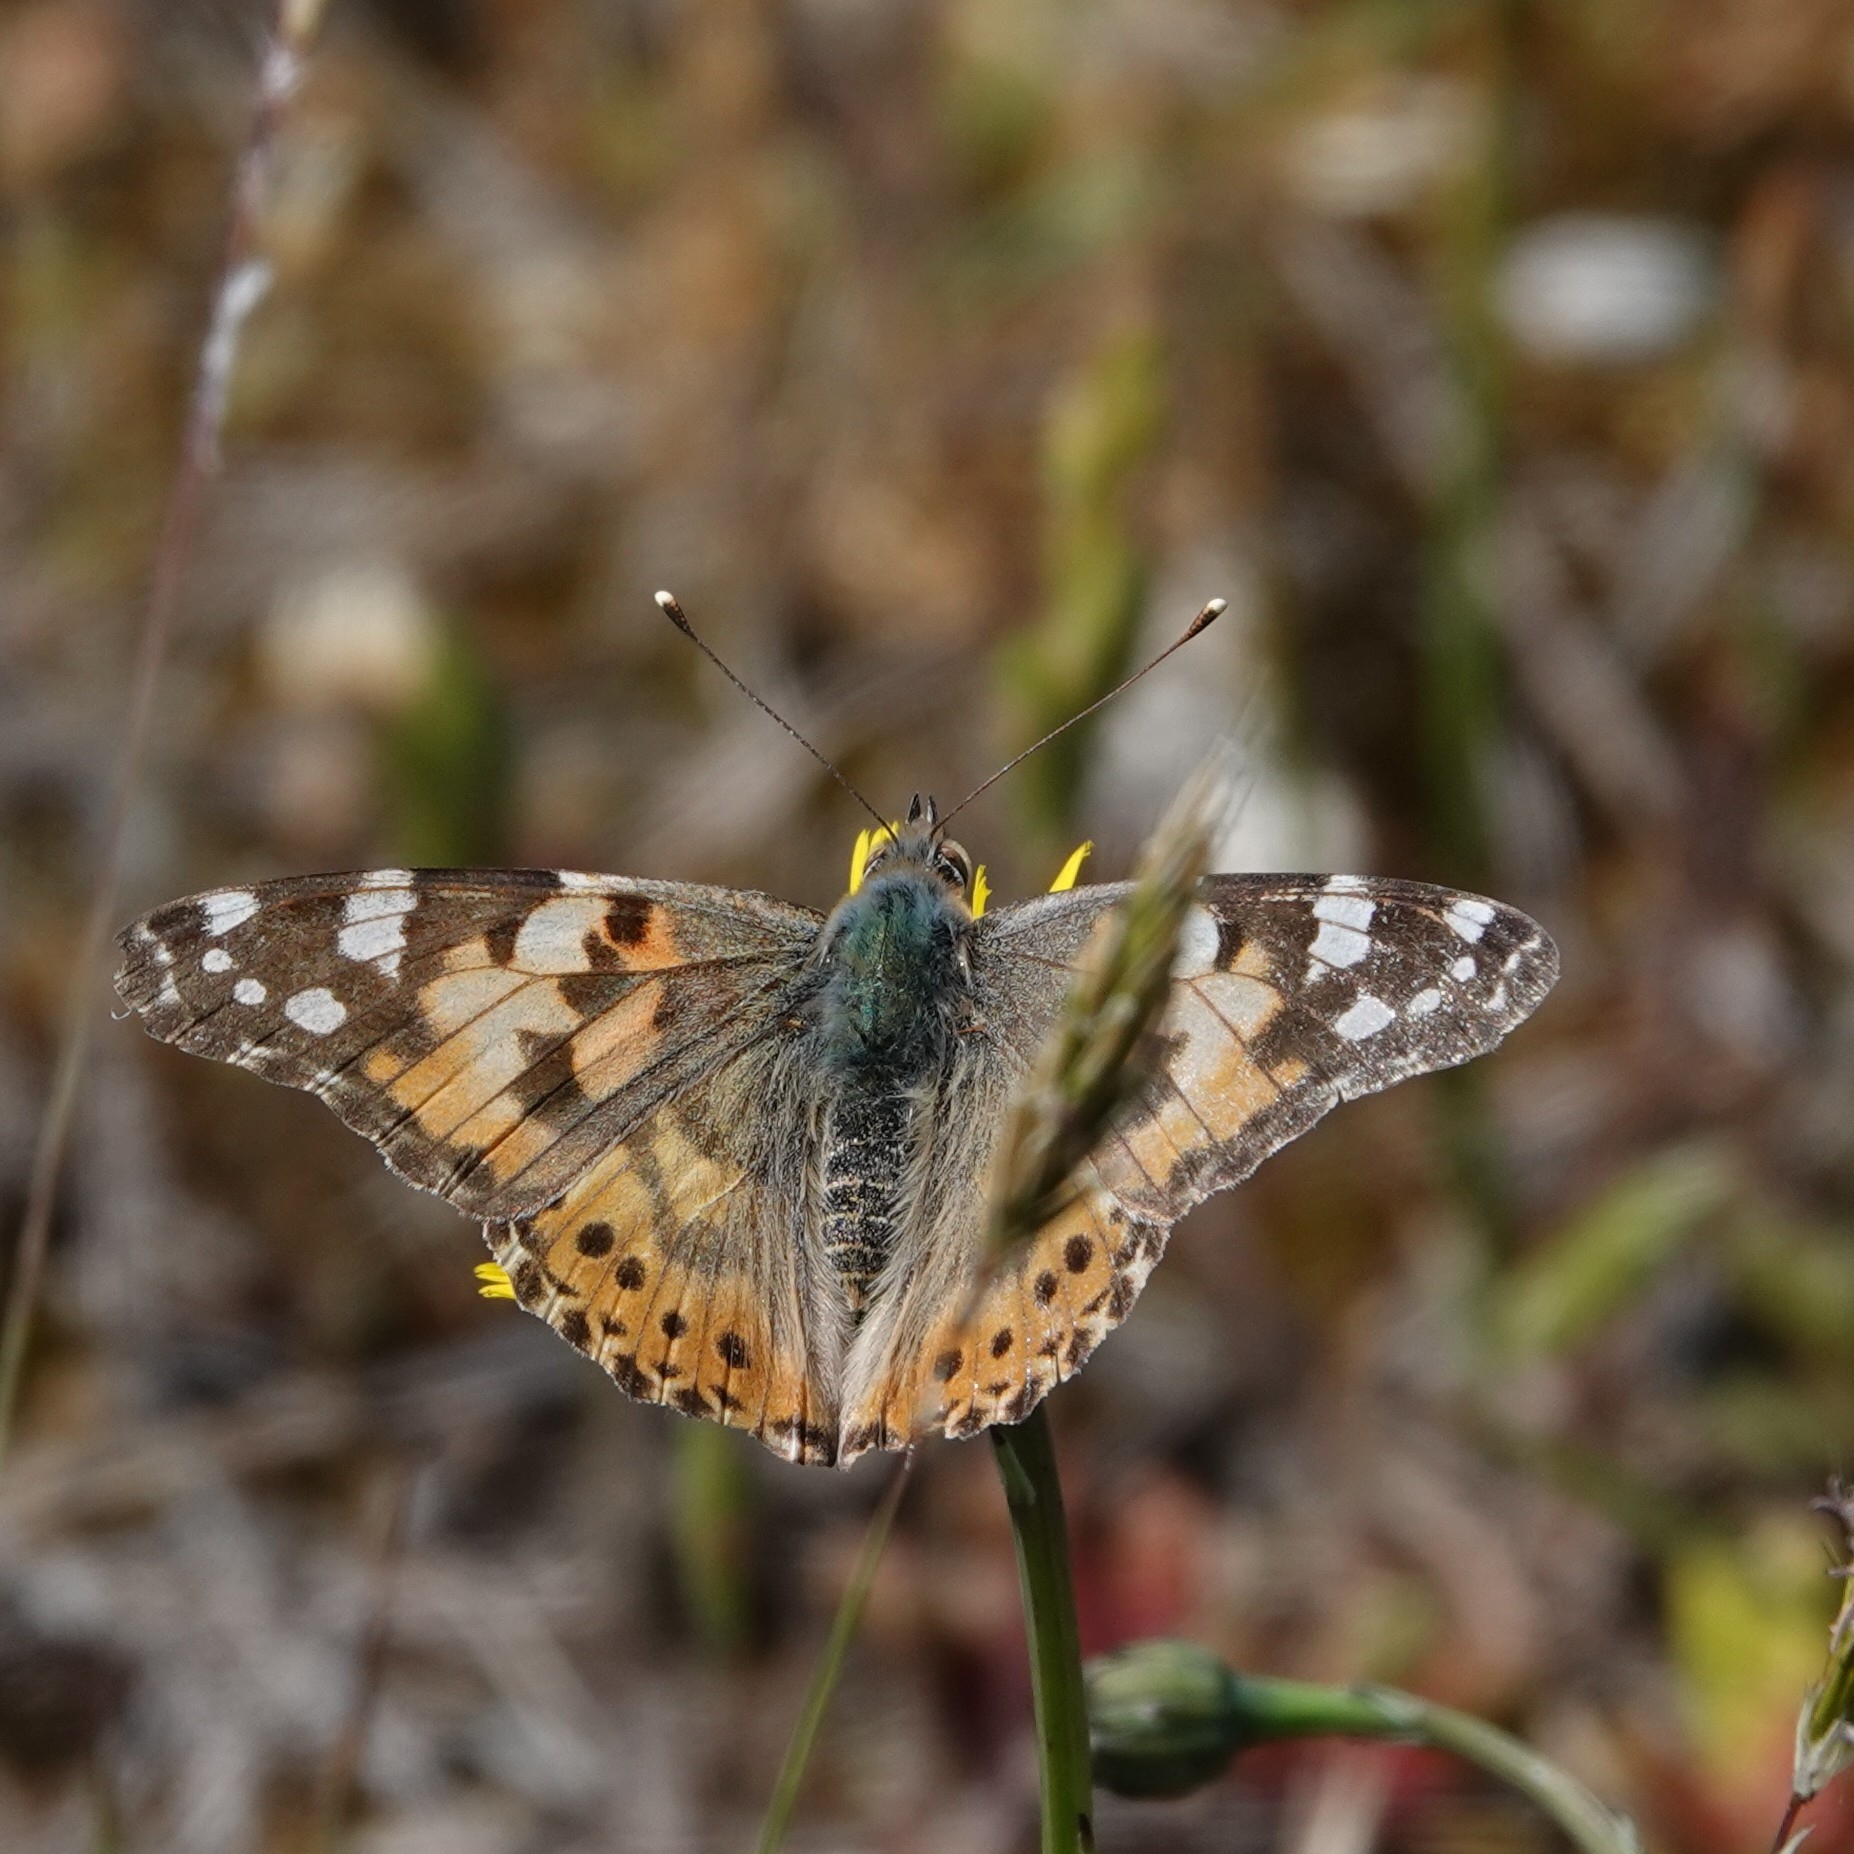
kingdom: Animalia
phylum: Arthropoda
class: Insecta
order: Lepidoptera
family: Nymphalidae
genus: Vanessa
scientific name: Vanessa cardui
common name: Painted lady
